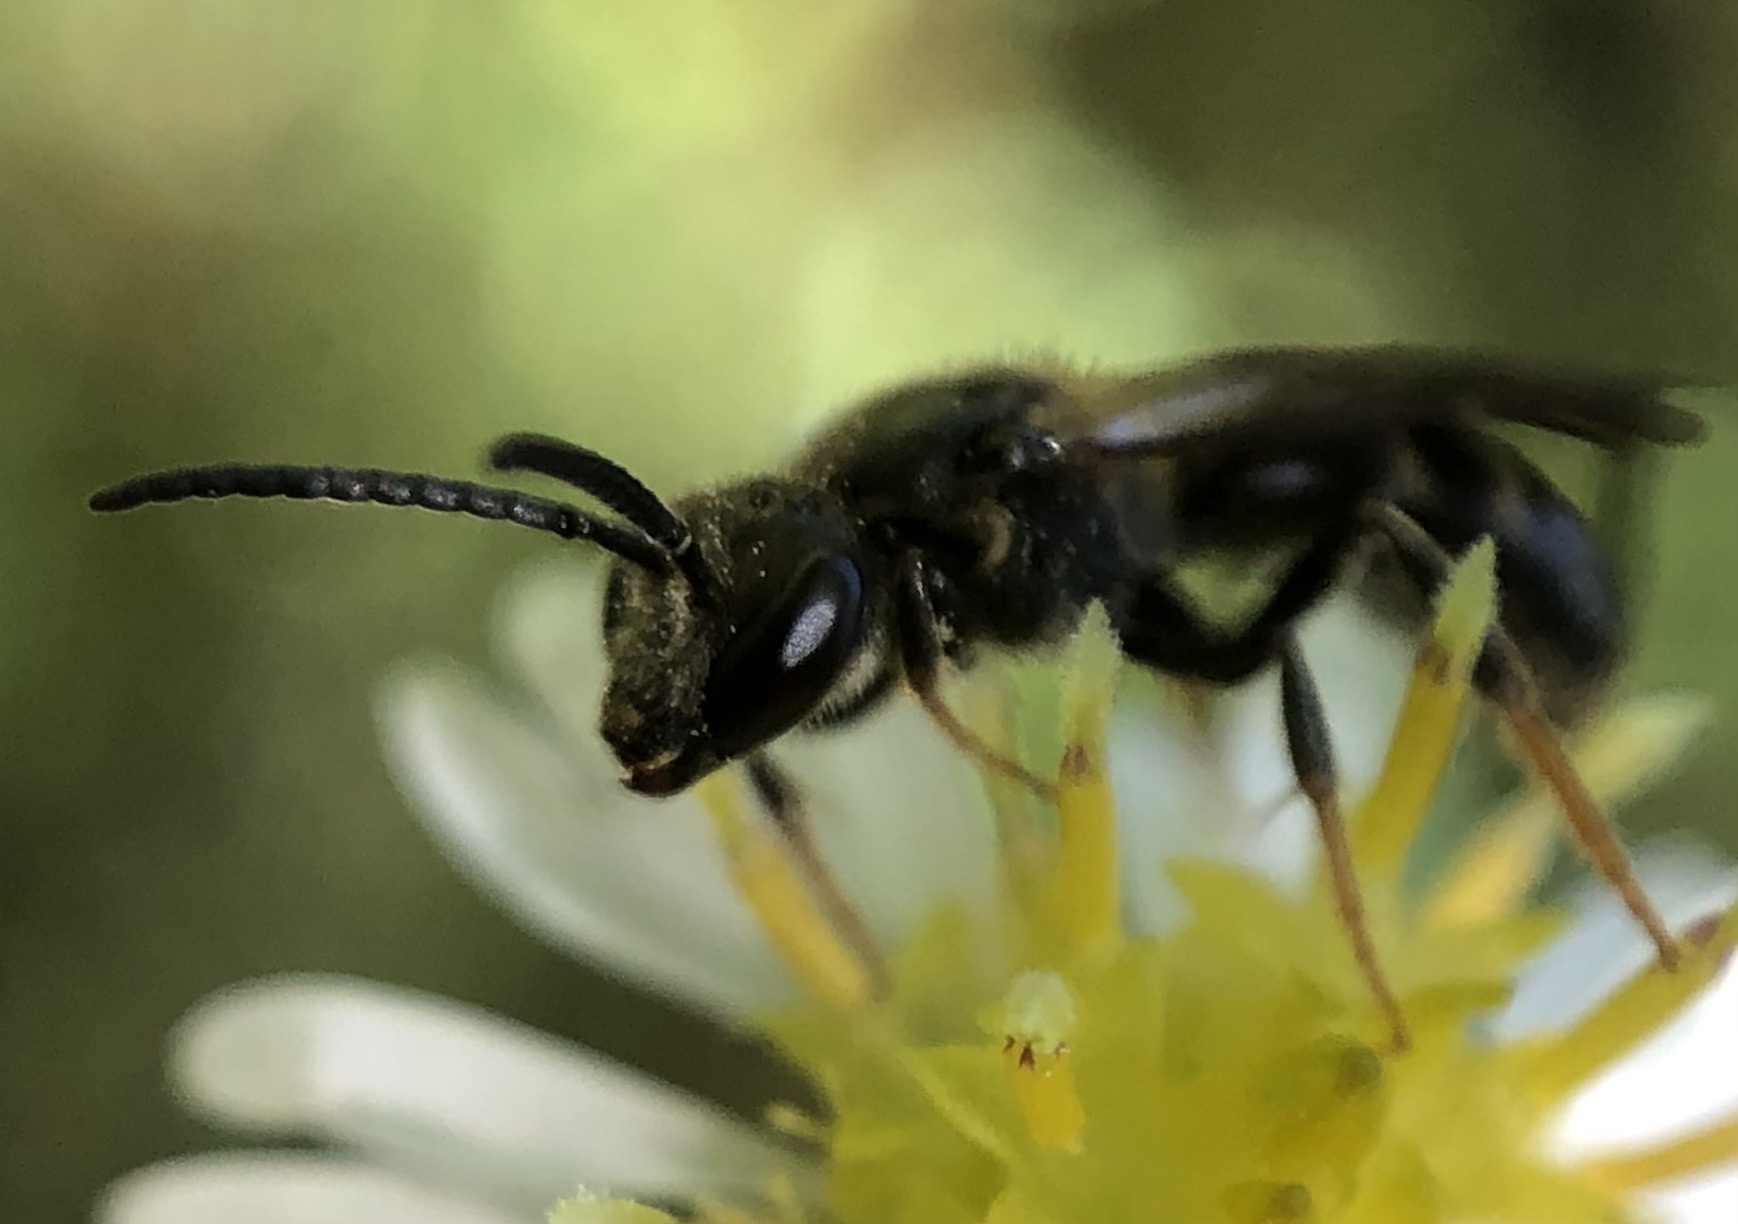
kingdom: Animalia
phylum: Arthropoda
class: Insecta
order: Hymenoptera
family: Halictidae
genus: Lasioglossum
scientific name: Lasioglossum fuscipenne
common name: Brown-winged sweat bee
